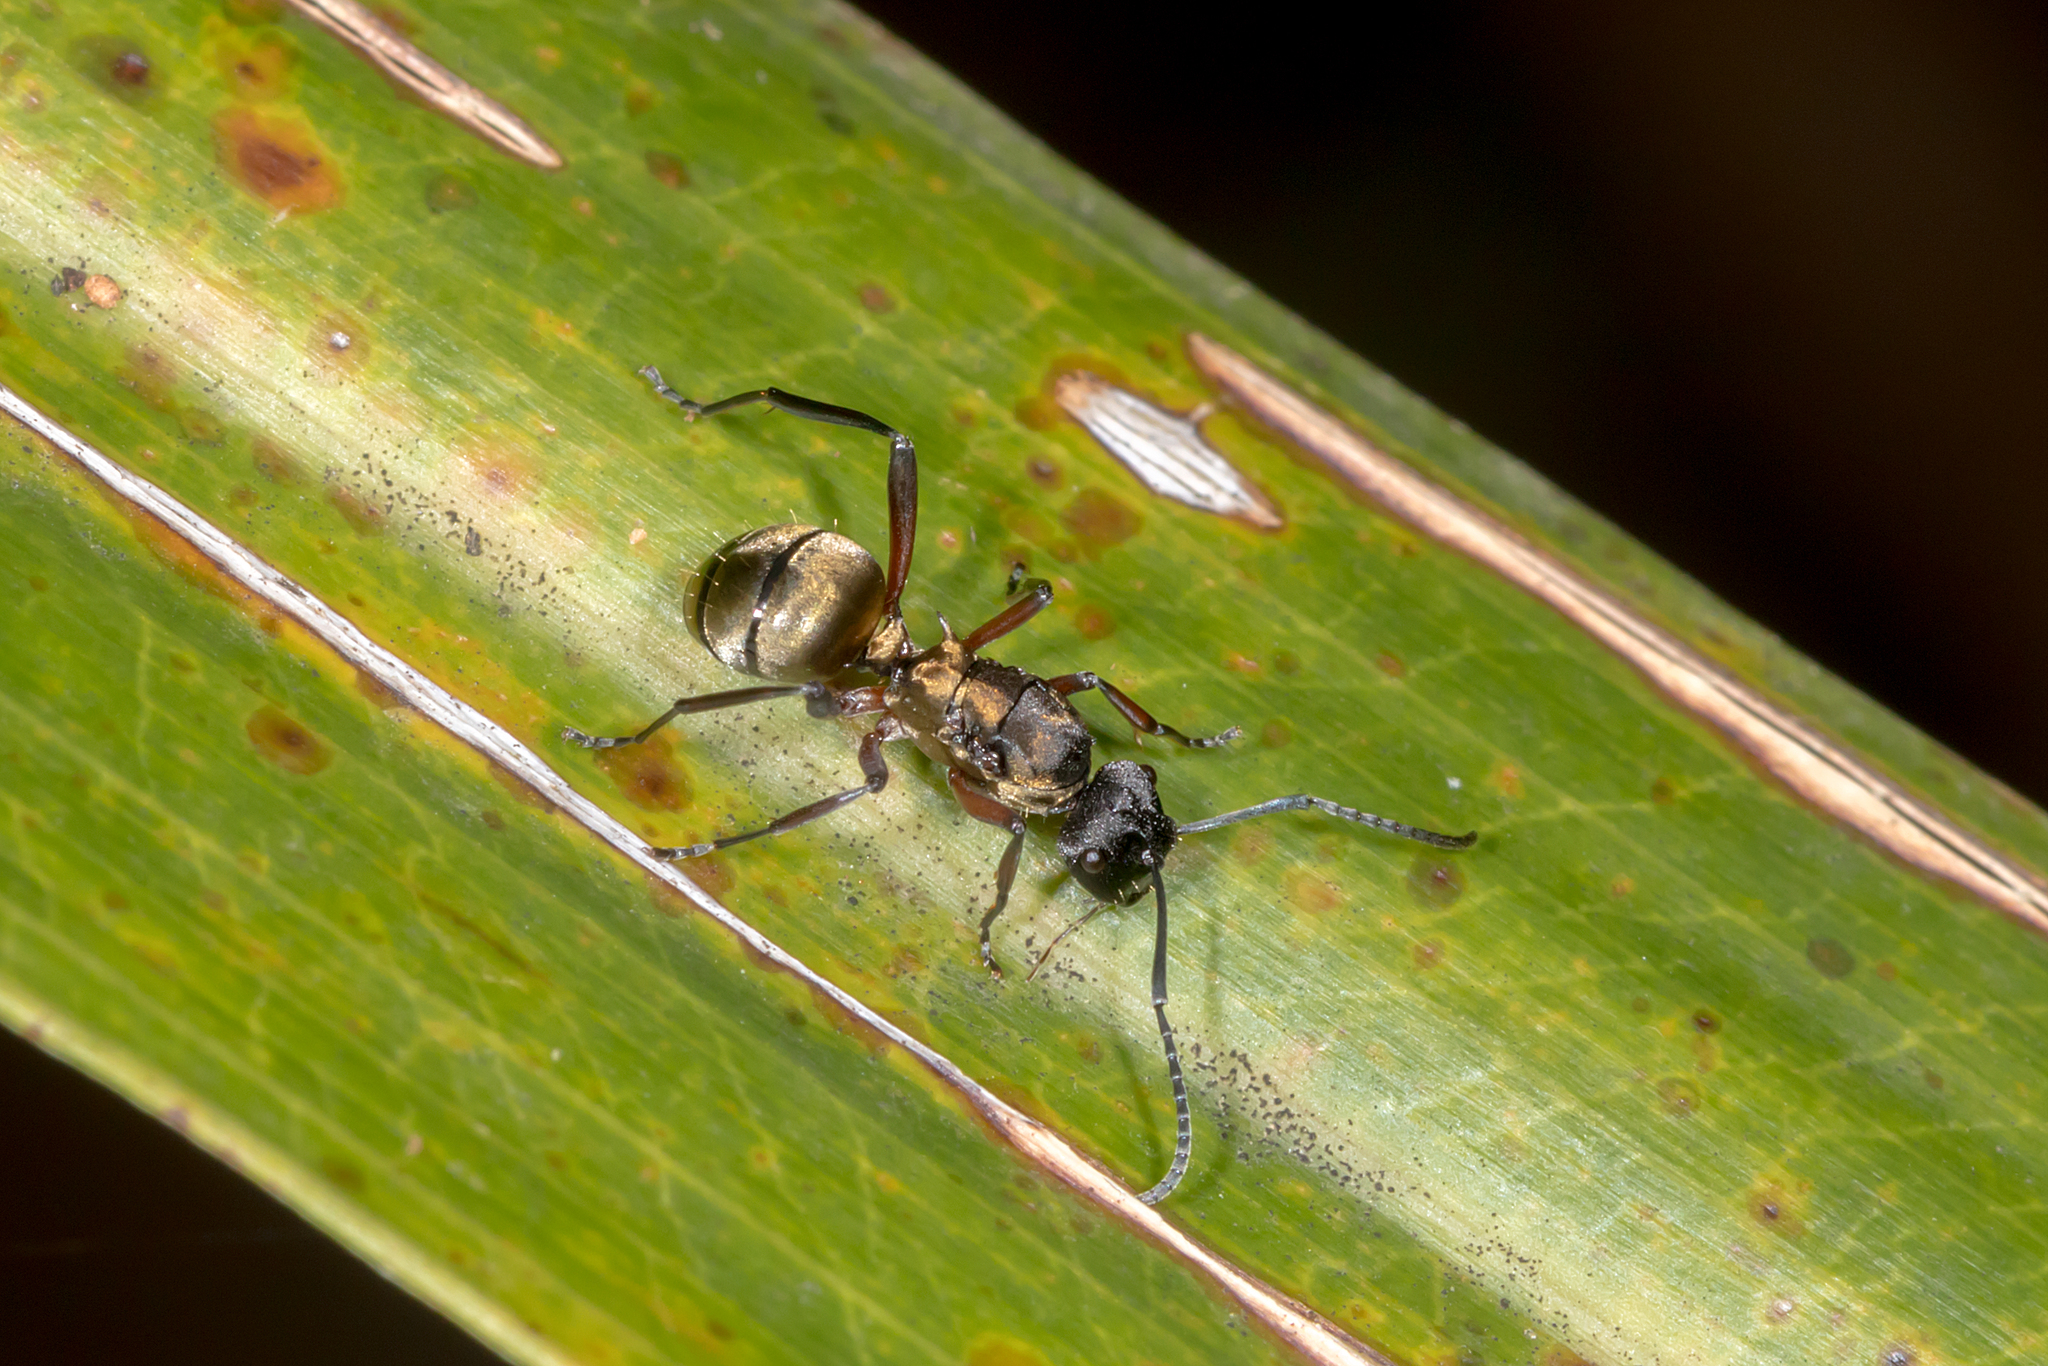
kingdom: Animalia
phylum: Arthropoda
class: Insecta
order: Hymenoptera
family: Formicidae
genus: Polyrhachis
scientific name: Polyrhachis rufifemur
